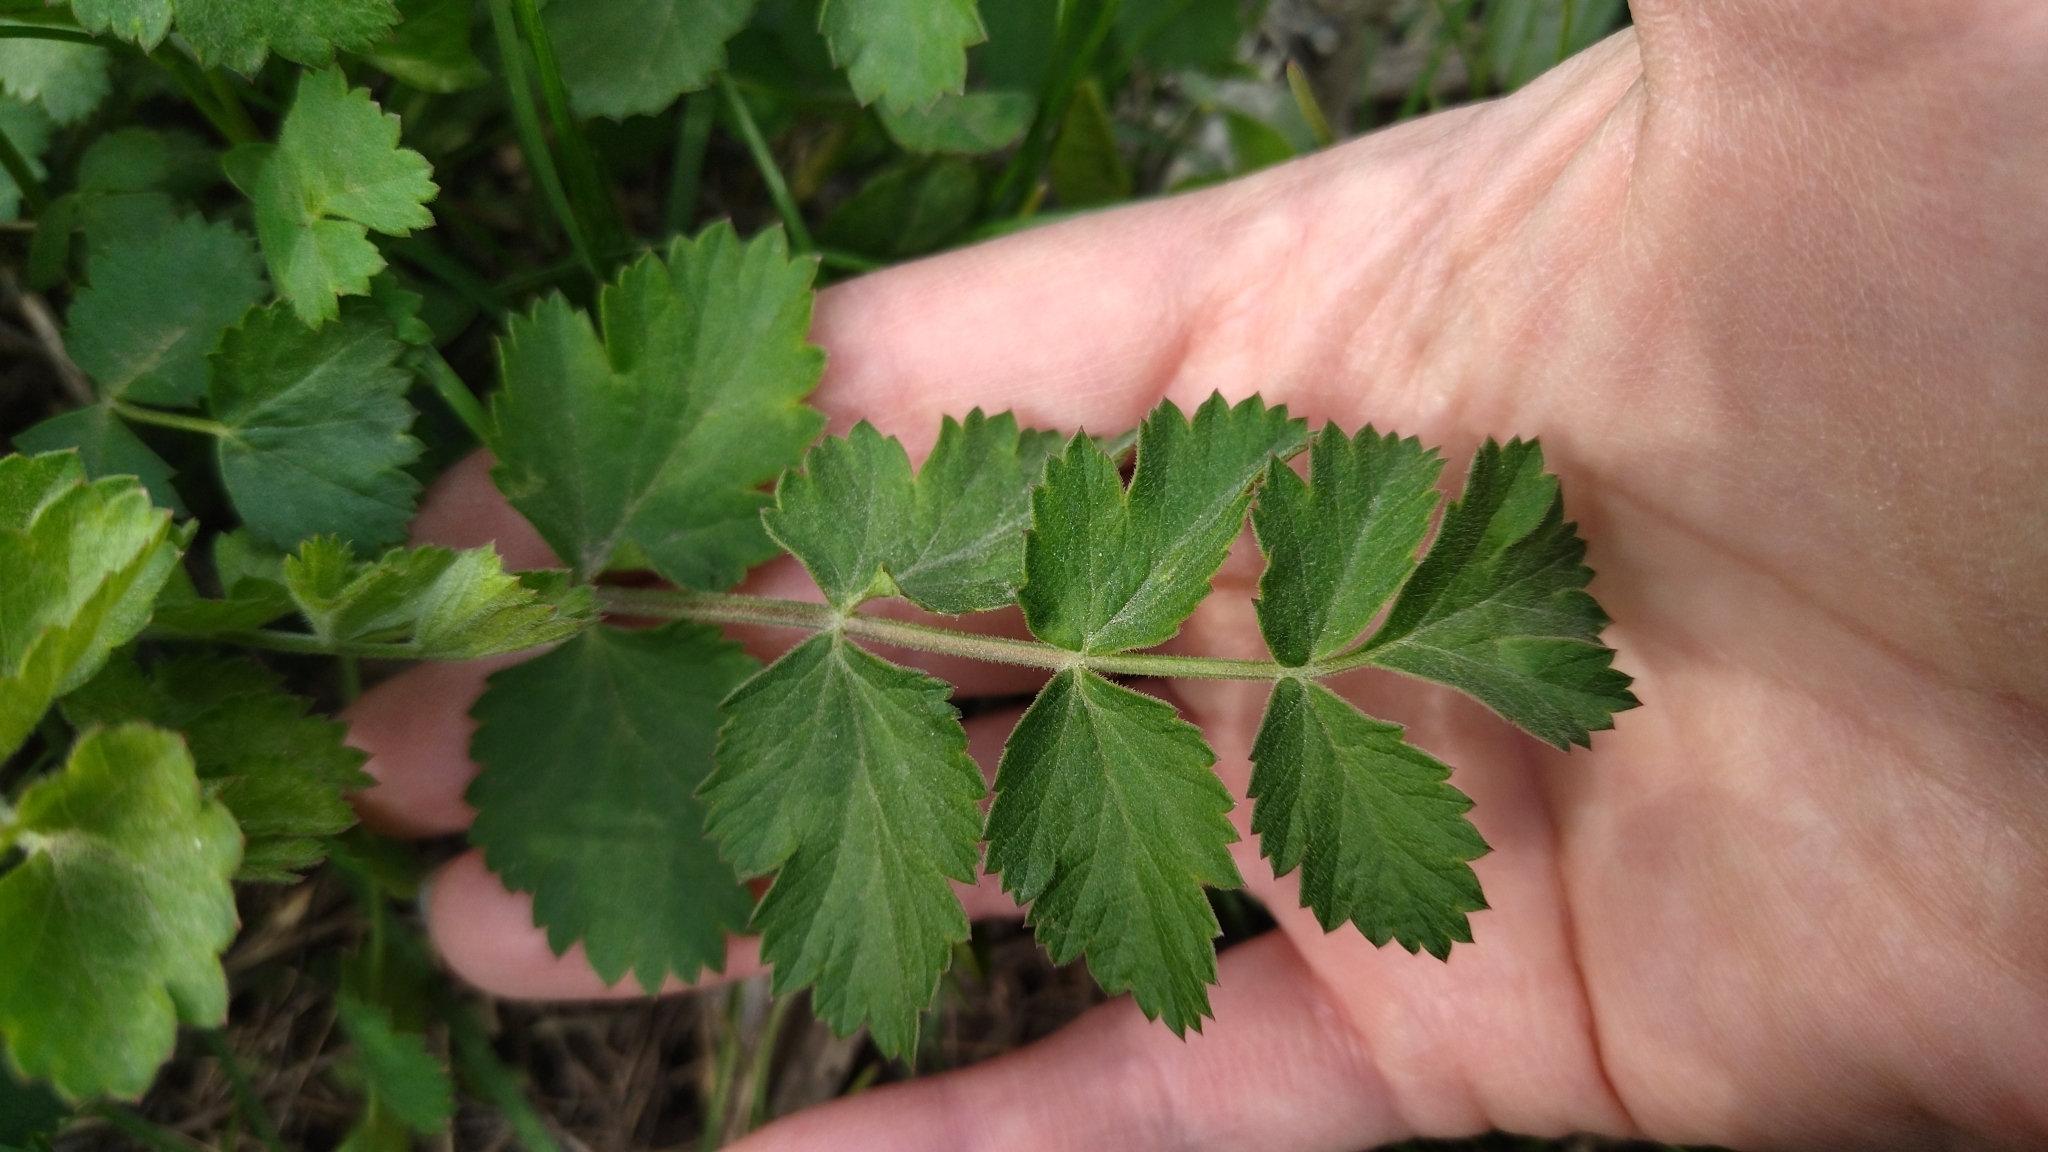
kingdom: Plantae
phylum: Tracheophyta
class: Magnoliopsida
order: Apiales
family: Apiaceae
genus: Pimpinella
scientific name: Pimpinella saxifraga
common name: Burnet-saxifrage
